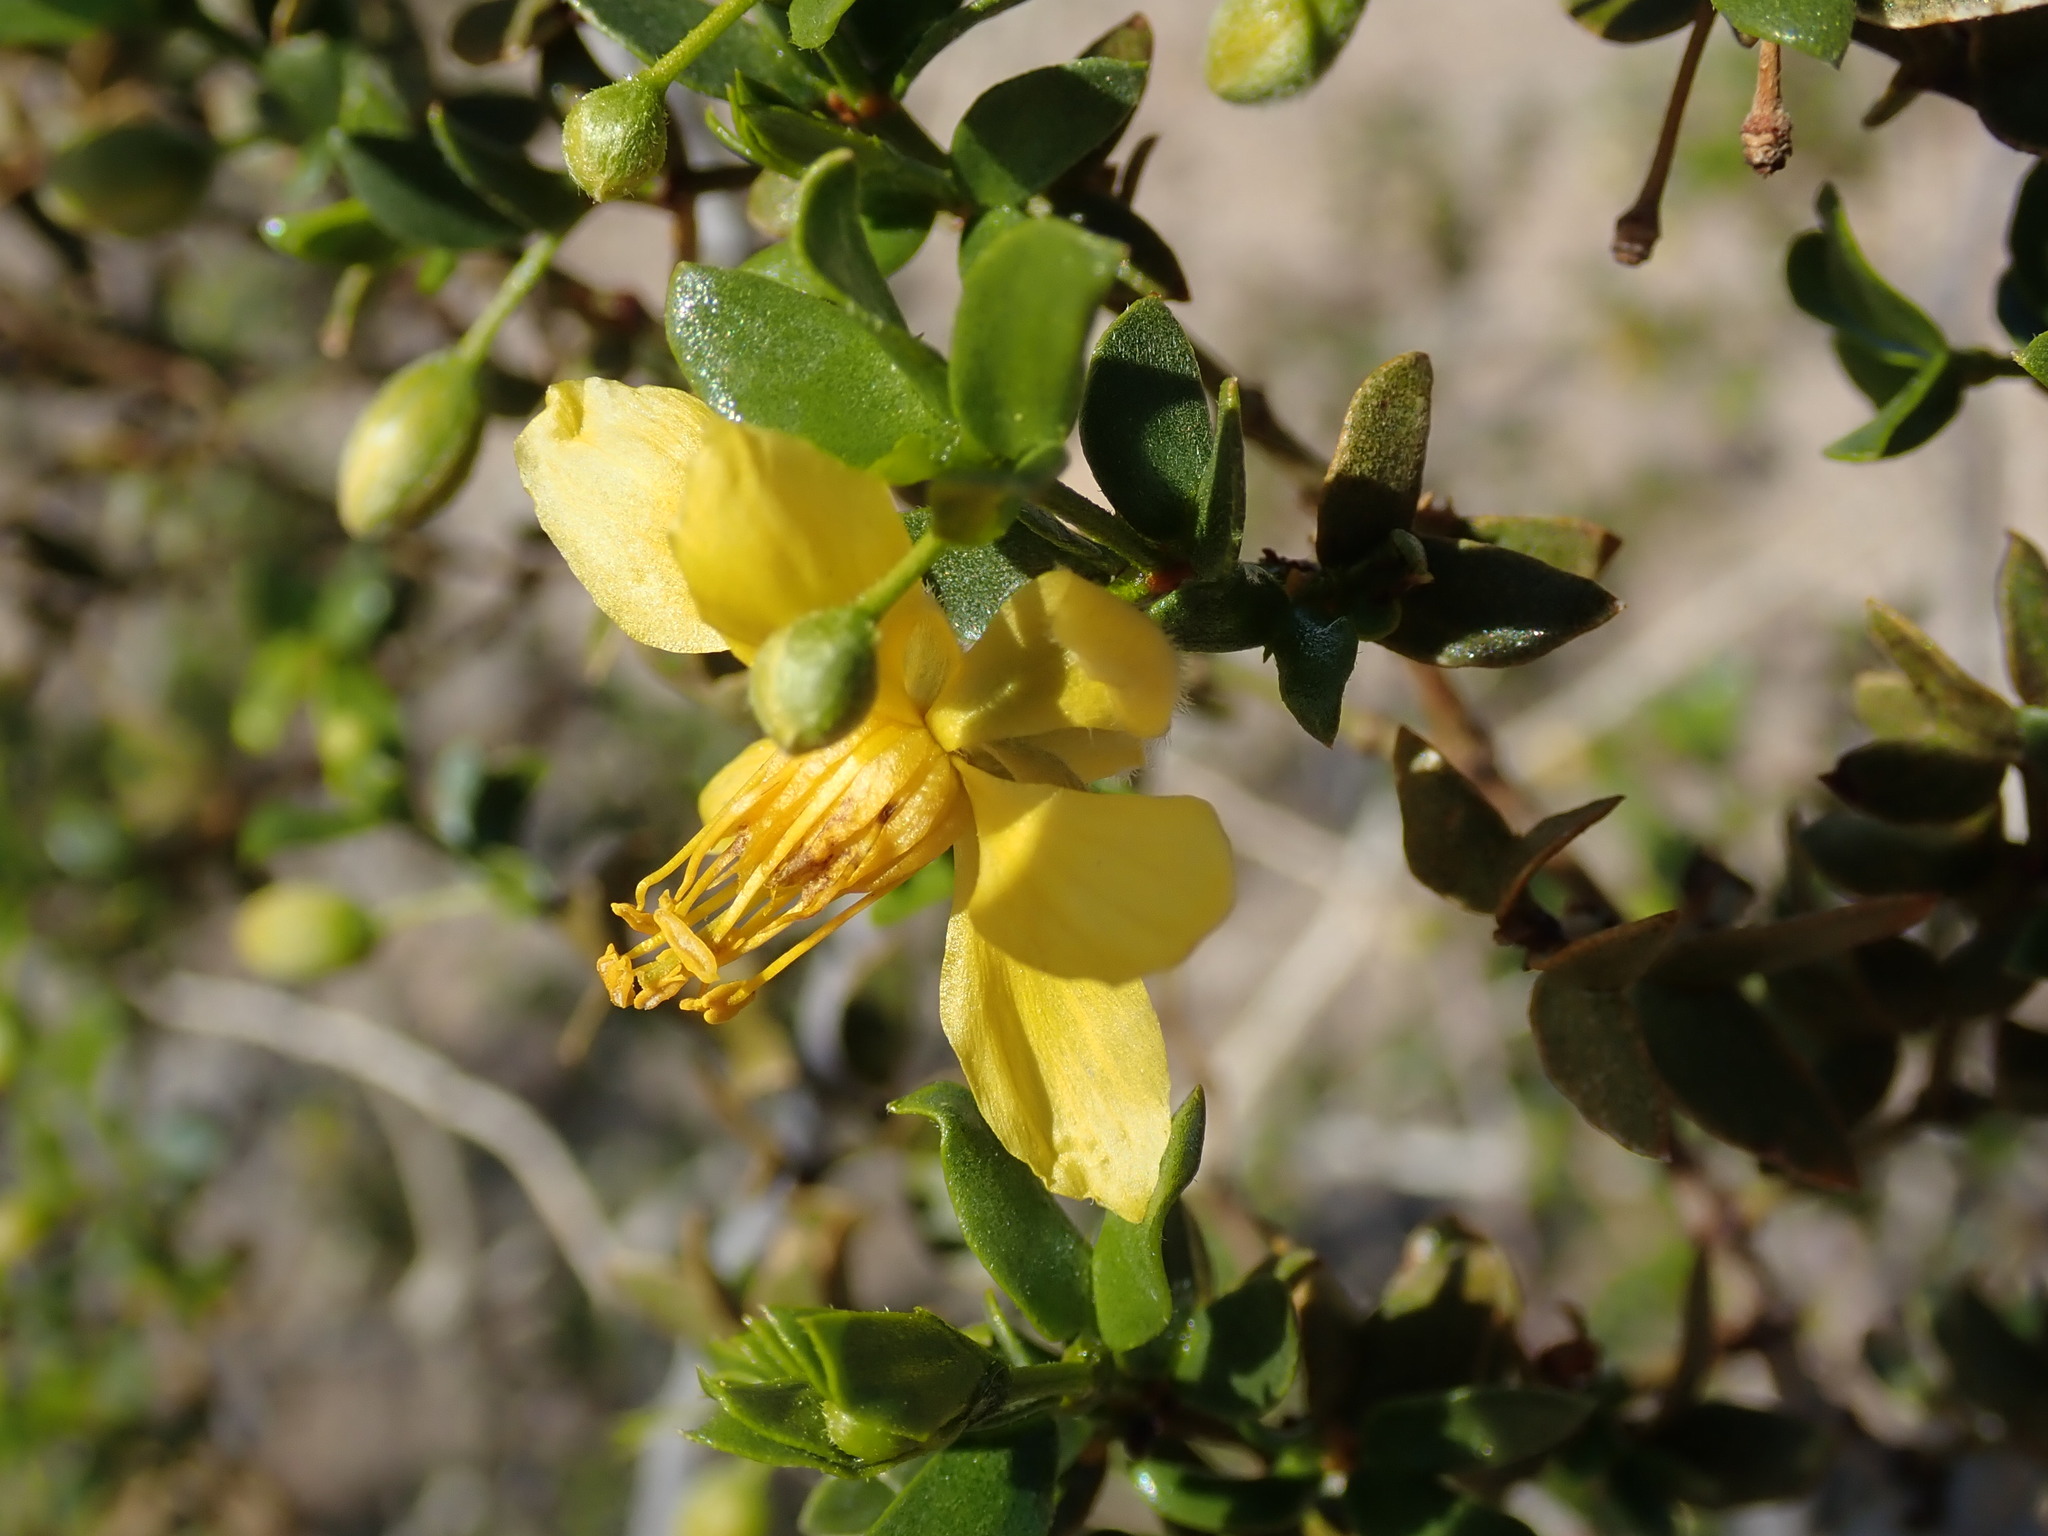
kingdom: Plantae
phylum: Tracheophyta
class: Magnoliopsida
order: Zygophyllales
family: Zygophyllaceae
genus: Larrea
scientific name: Larrea tridentata
